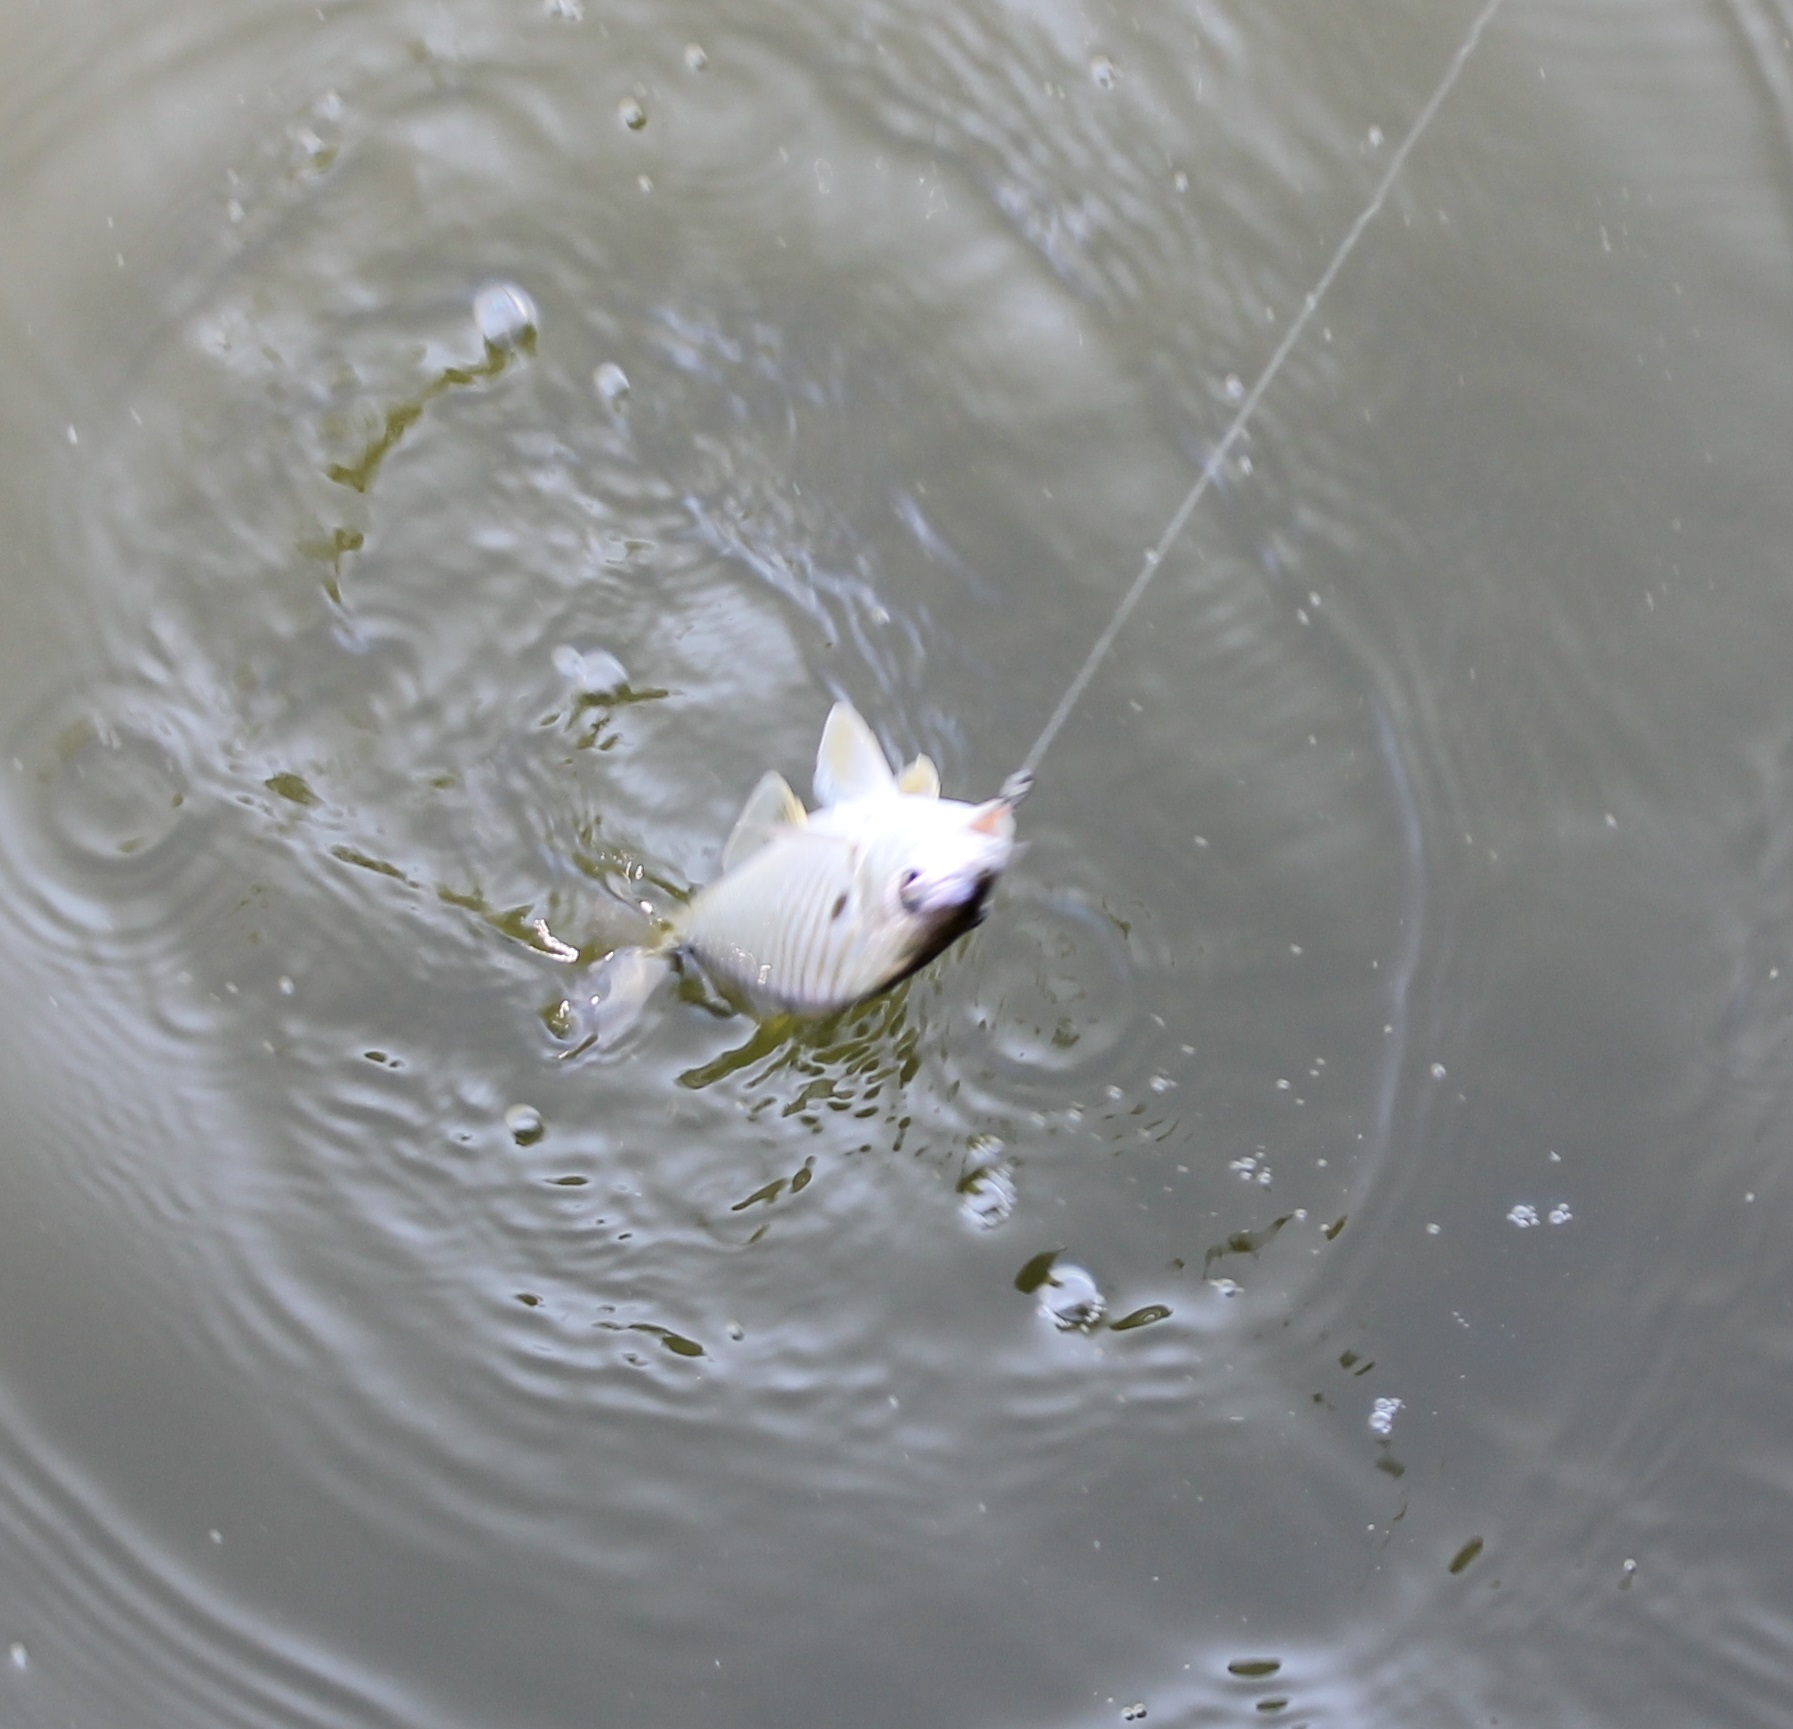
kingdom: Animalia
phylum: Chordata
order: Perciformes
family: Sciaenidae
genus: Leiostomus
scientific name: Leiostomus xanthurus
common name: Spot
